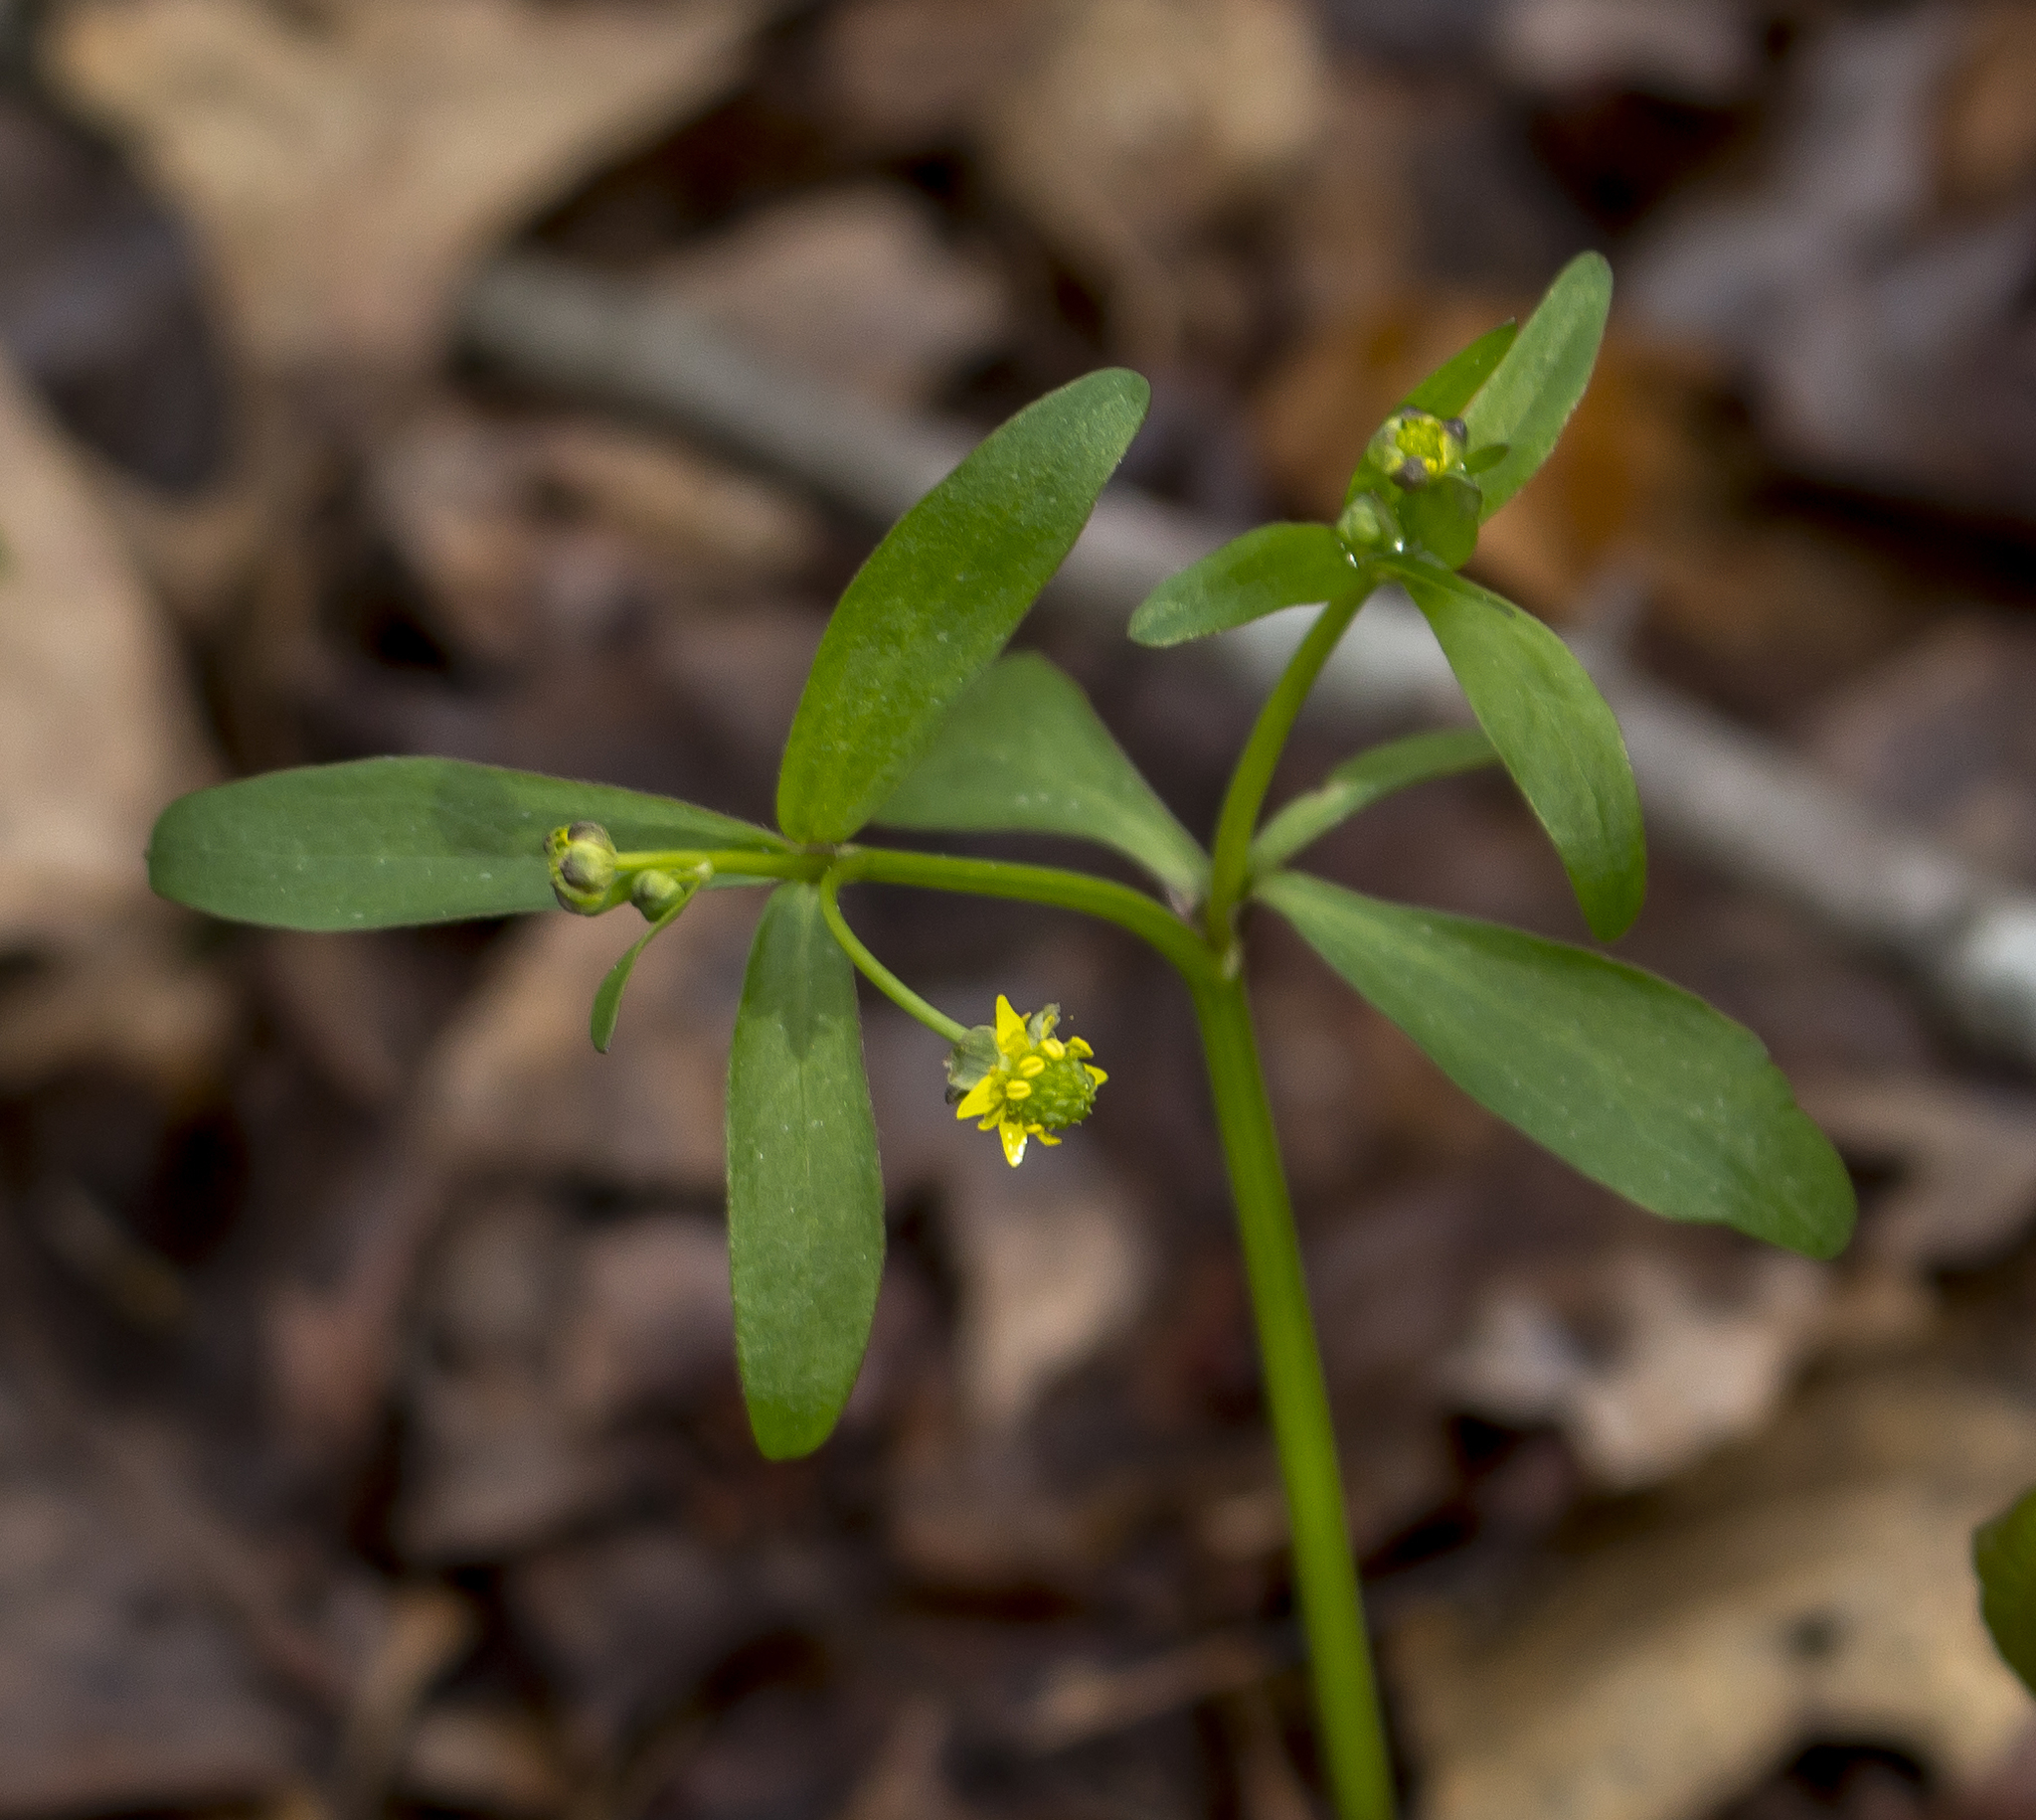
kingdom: Plantae
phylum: Tracheophyta
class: Magnoliopsida
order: Ranunculales
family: Ranunculaceae
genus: Ranunculus
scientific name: Ranunculus abortivus
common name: Early wood buttercup
